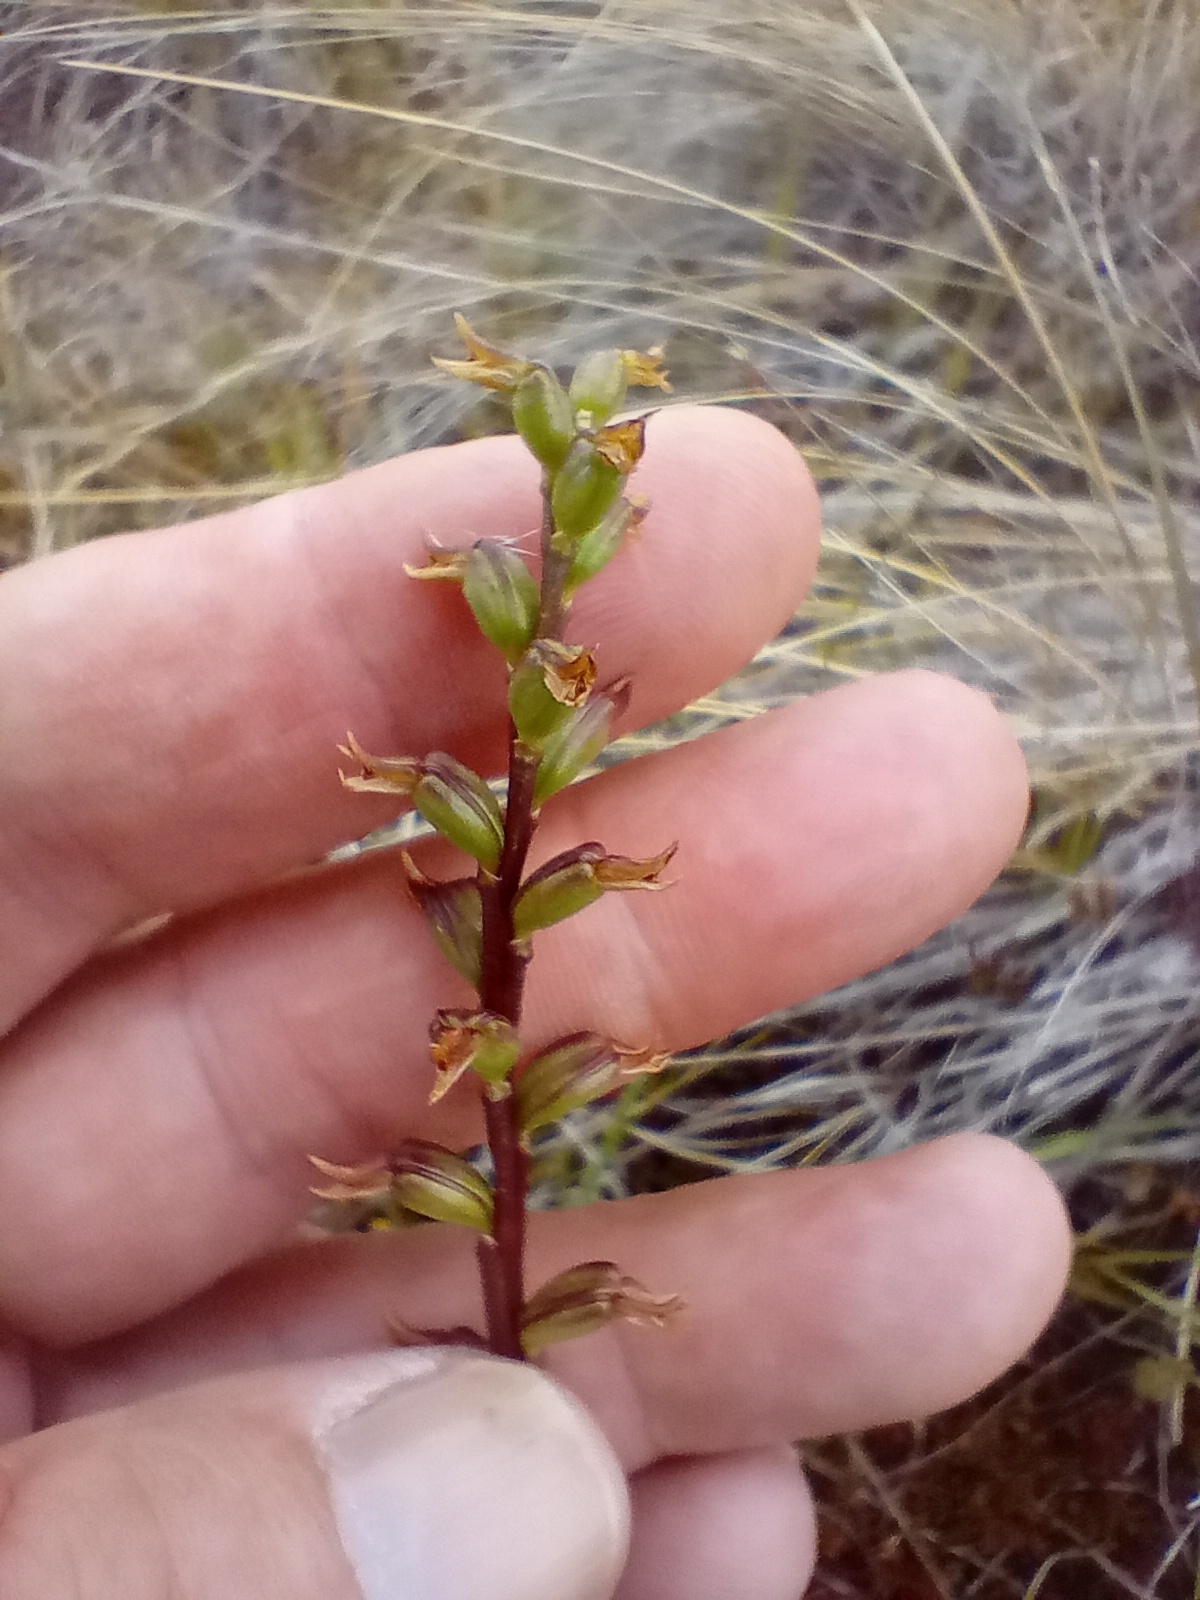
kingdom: Plantae
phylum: Tracheophyta
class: Liliopsida
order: Asparagales
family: Orchidaceae
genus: Prasophyllum
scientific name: Prasophyllum colensoi
